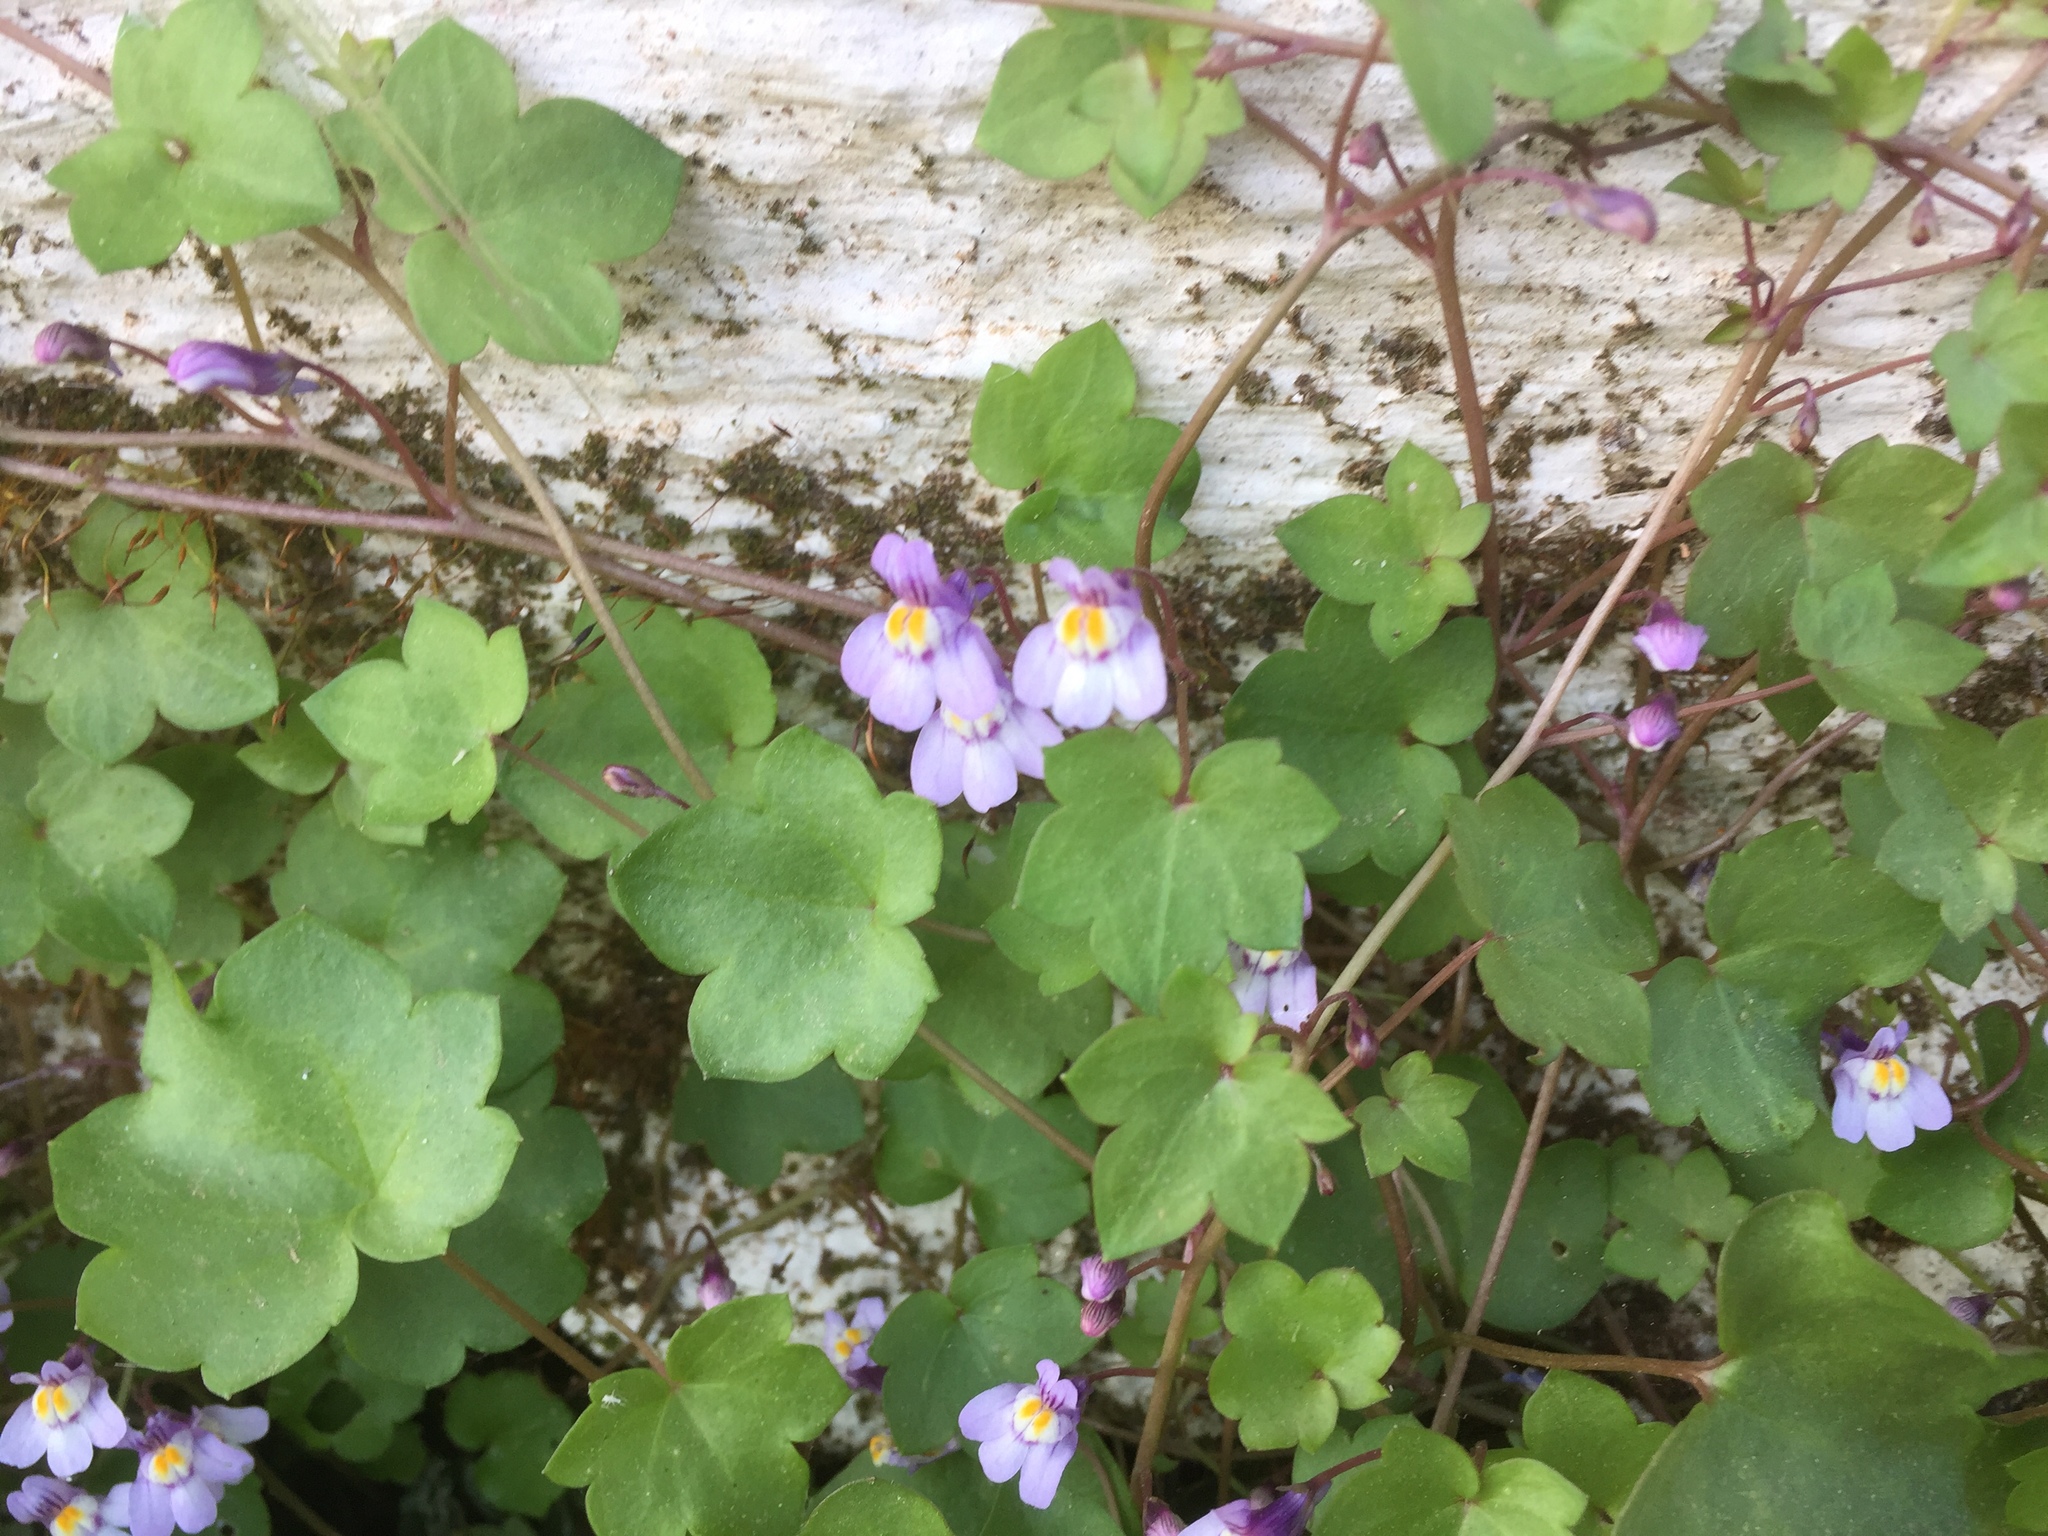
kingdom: Plantae
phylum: Tracheophyta
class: Magnoliopsida
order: Lamiales
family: Plantaginaceae
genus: Cymbalaria
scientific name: Cymbalaria muralis
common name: Ivy-leaved toadflax
